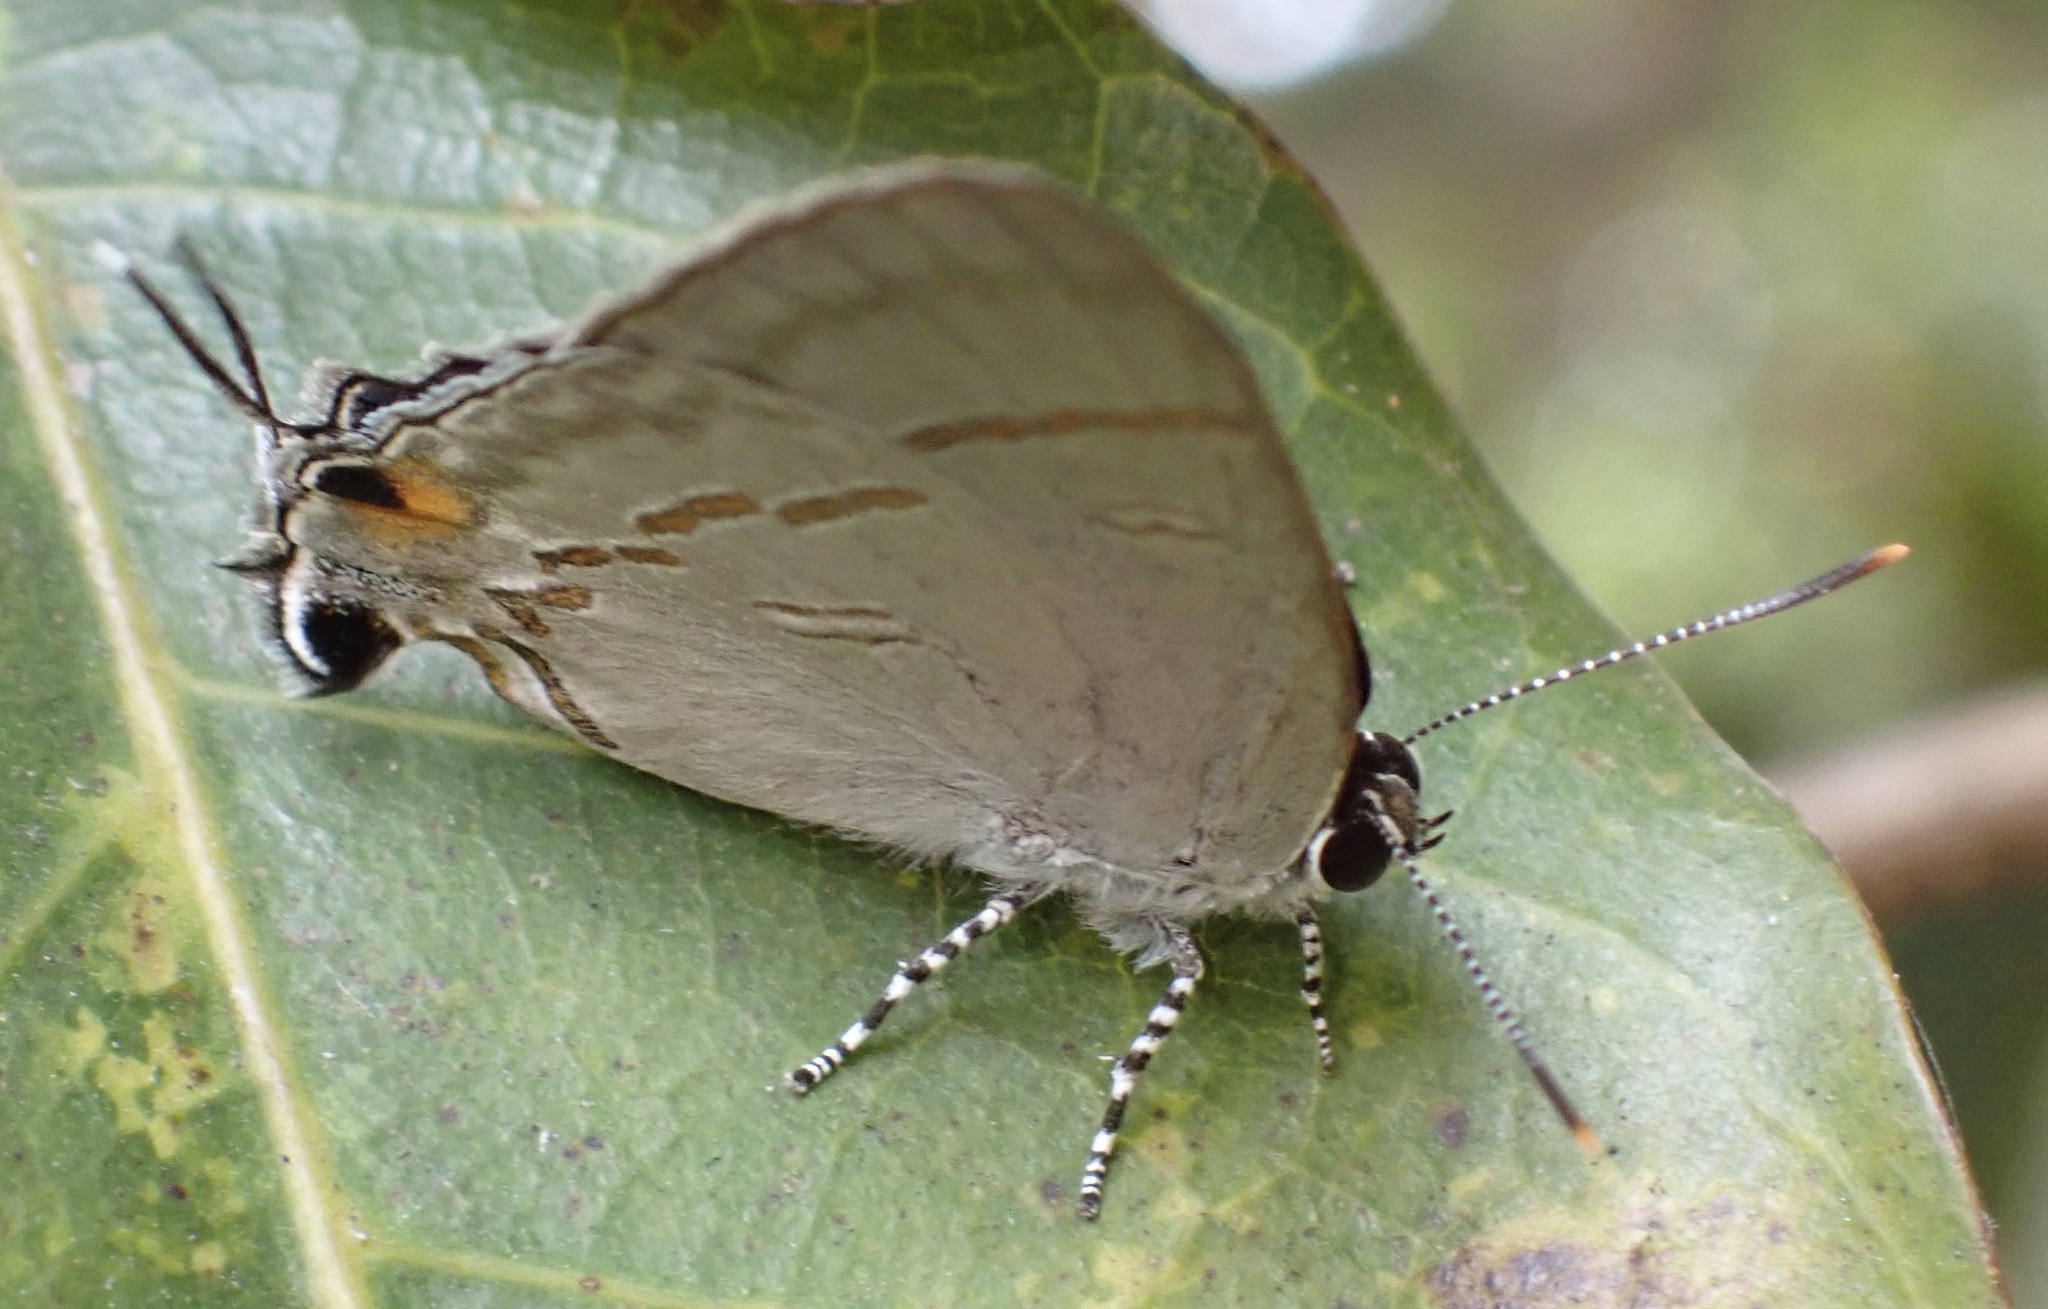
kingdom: Animalia
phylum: Arthropoda
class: Insecta
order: Lepidoptera
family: Lycaenidae
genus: Hypolycaena
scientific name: Hypolycaena erylus
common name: Common tit
